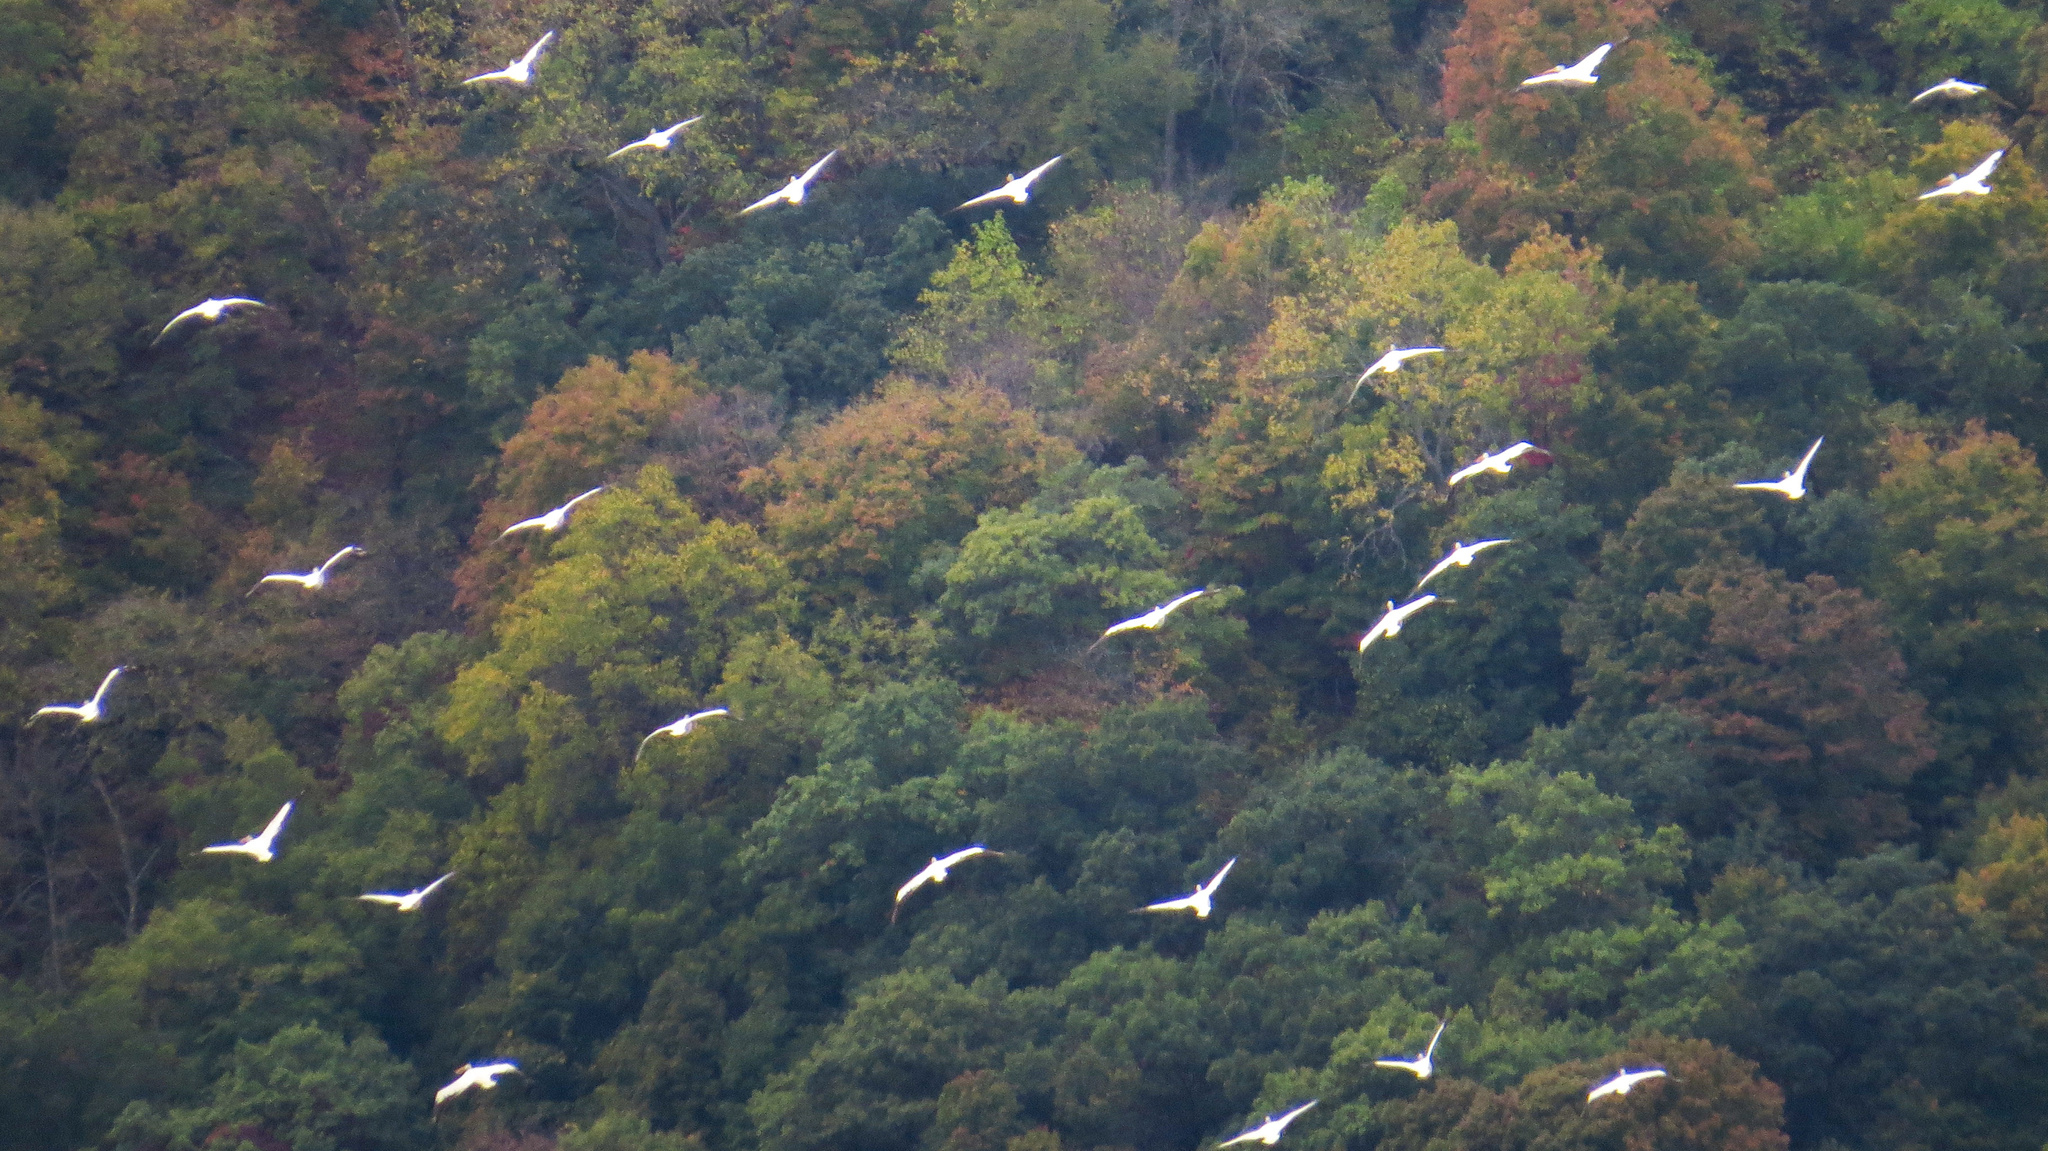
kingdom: Animalia
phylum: Chordata
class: Aves
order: Pelecaniformes
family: Pelecanidae
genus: Pelecanus
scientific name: Pelecanus erythrorhynchos
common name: American white pelican
